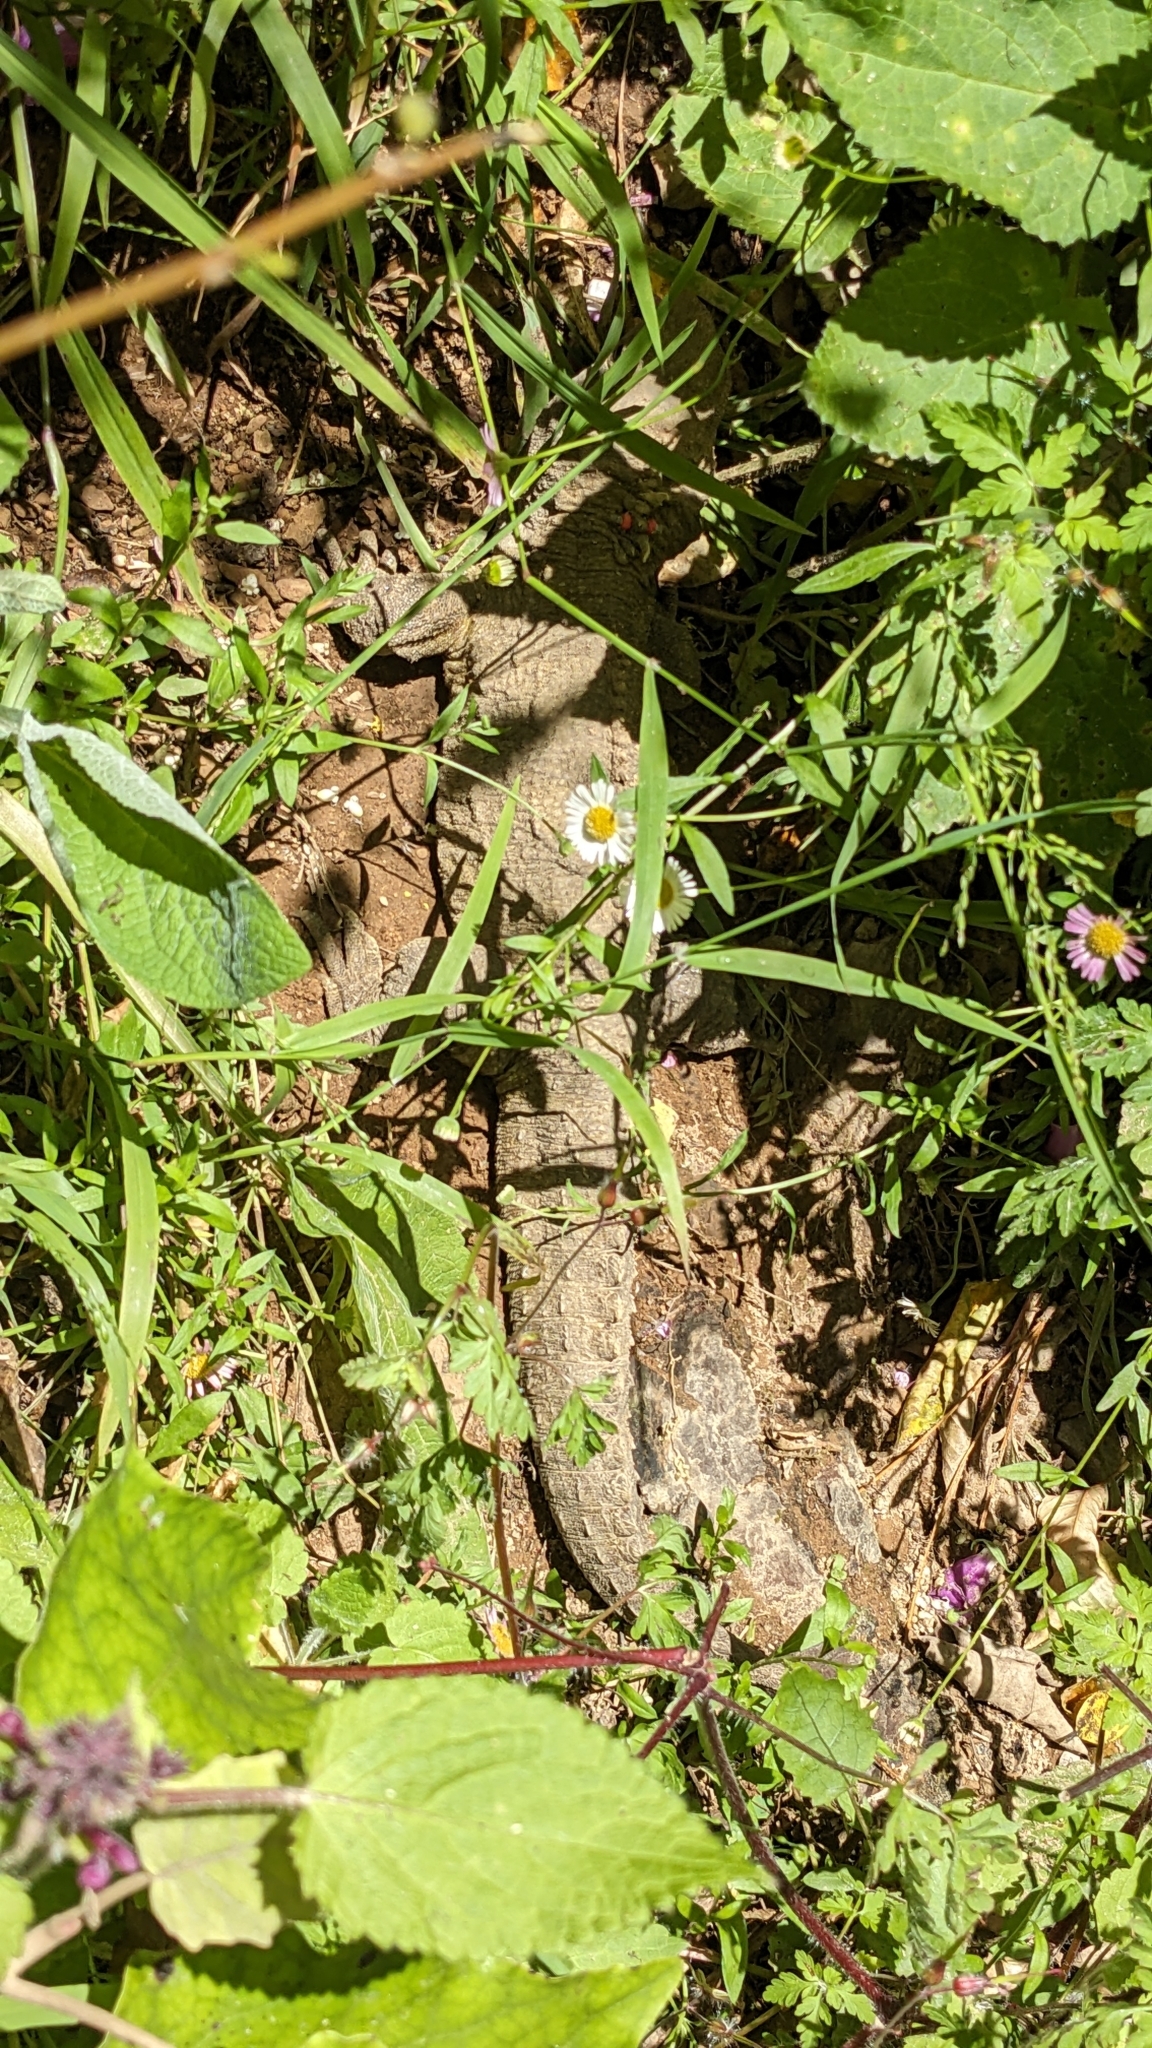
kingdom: Animalia
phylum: Chordata
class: Sphenodontia
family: Sphenodontidae
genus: Sphenodon
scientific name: Sphenodon punctatus
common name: Tuatara
